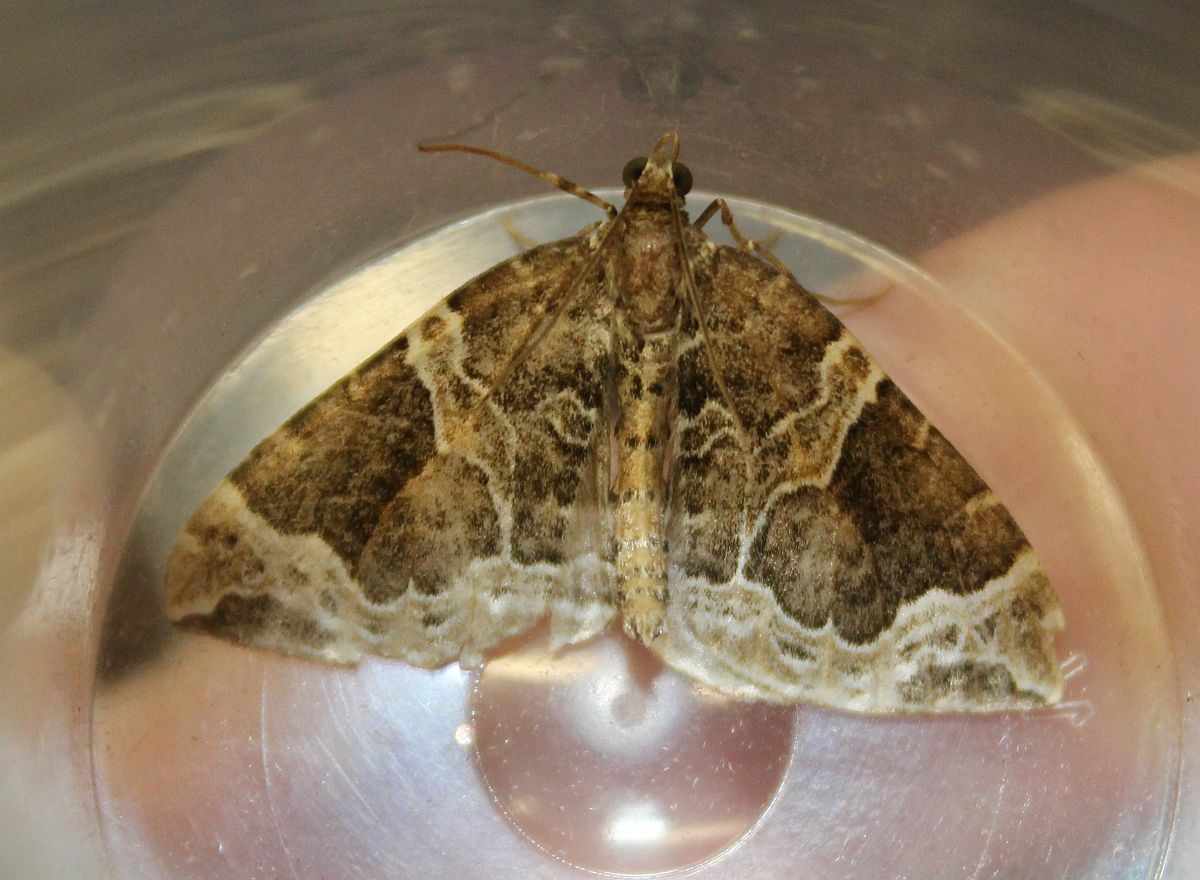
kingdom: Animalia
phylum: Arthropoda
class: Insecta
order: Lepidoptera
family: Geometridae
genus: Eulithis
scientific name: Eulithis prunata
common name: Phoenix
